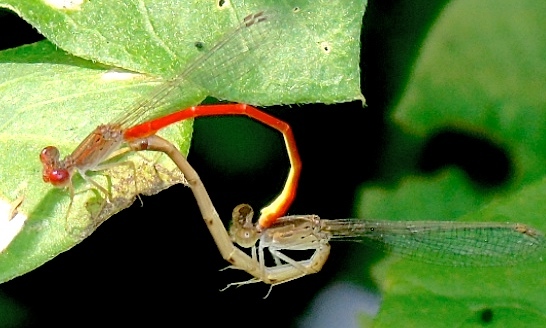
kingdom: Animalia
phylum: Arthropoda
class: Insecta
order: Odonata
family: Coenagrionidae
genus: Telebasis
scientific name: Telebasis
